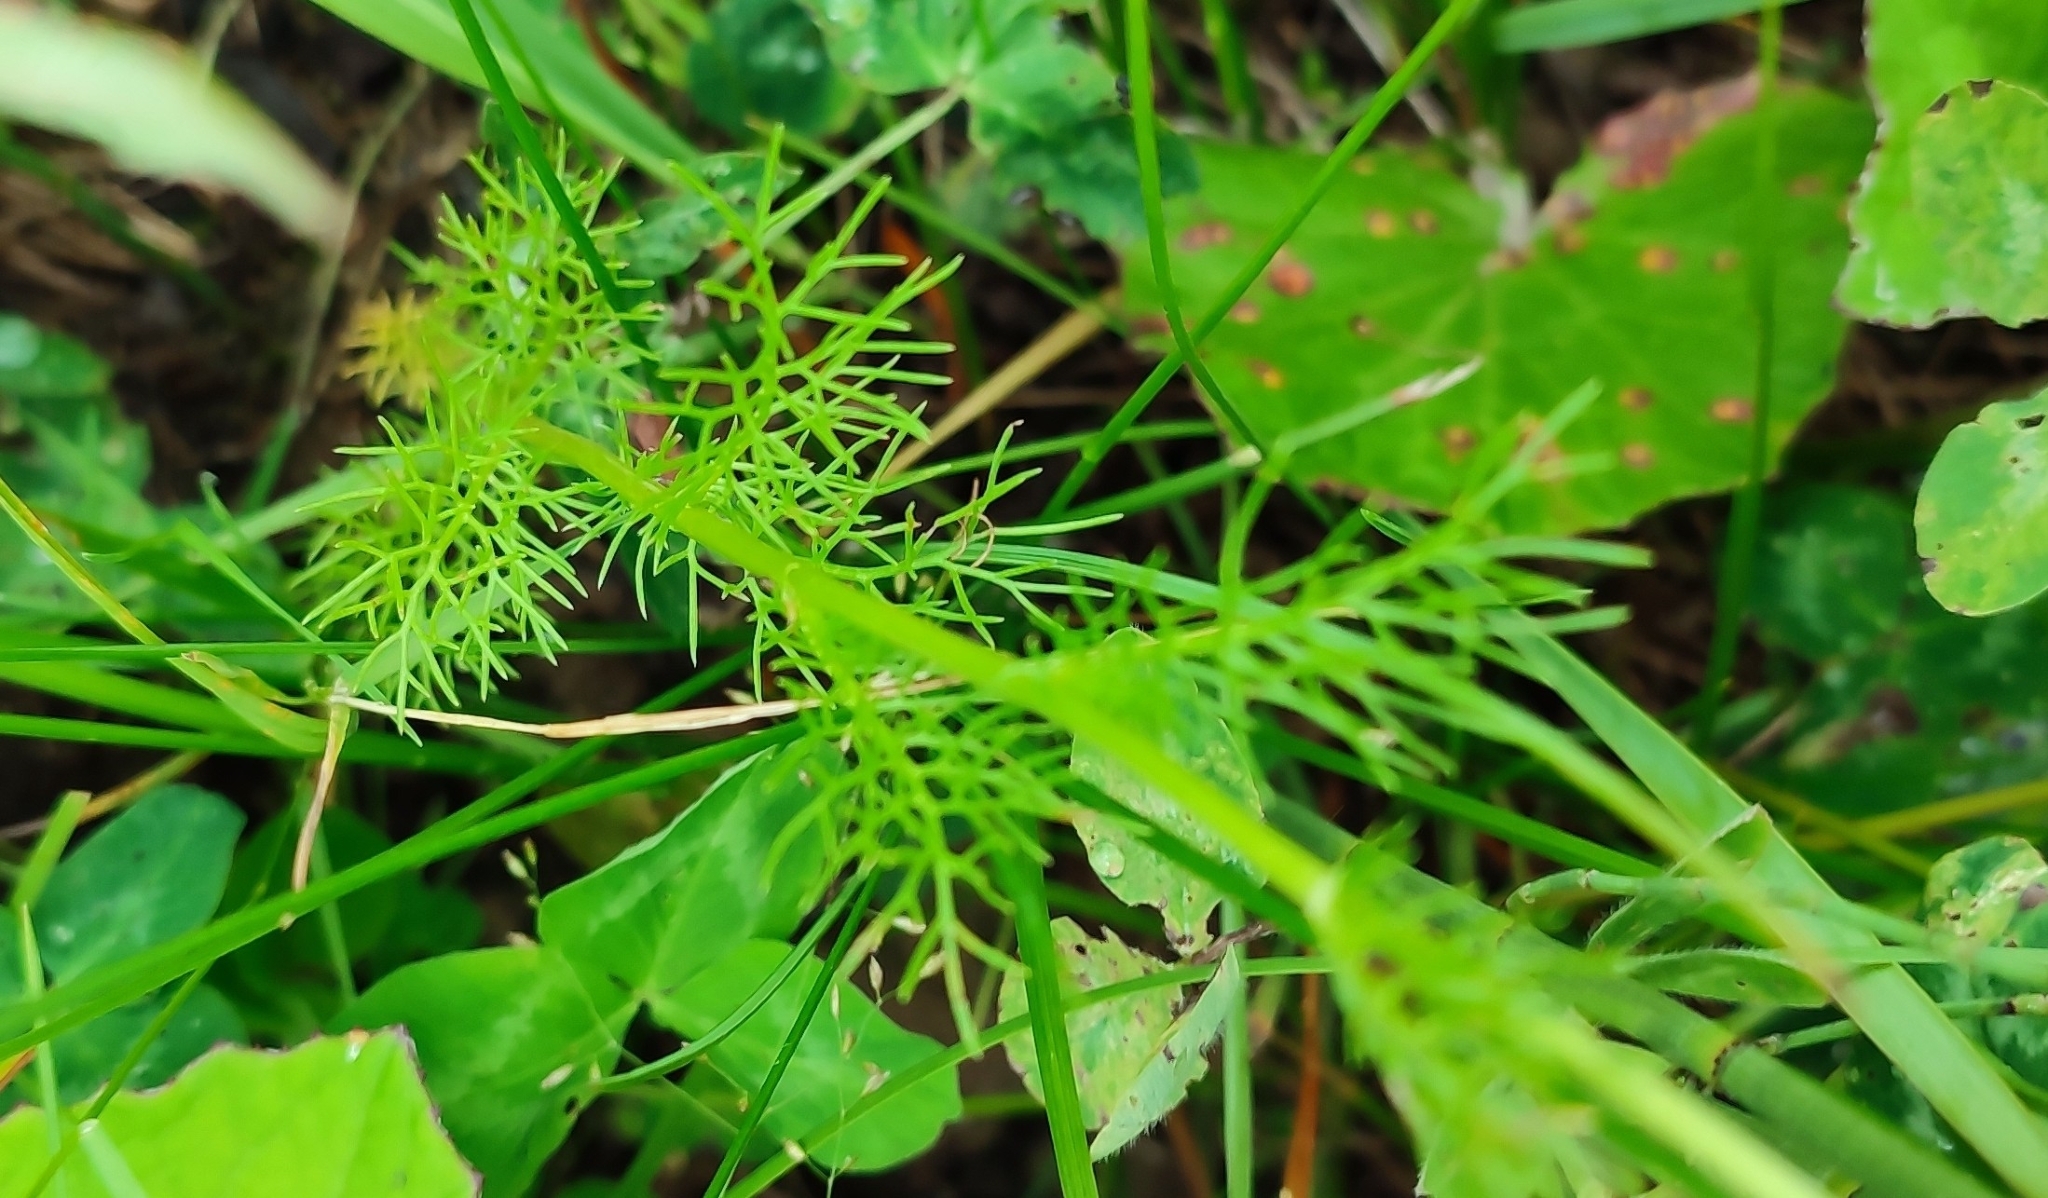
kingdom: Plantae
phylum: Tracheophyta
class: Magnoliopsida
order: Asterales
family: Asteraceae
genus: Tripleurospermum
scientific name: Tripleurospermum inodorum
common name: Scentless mayweed
